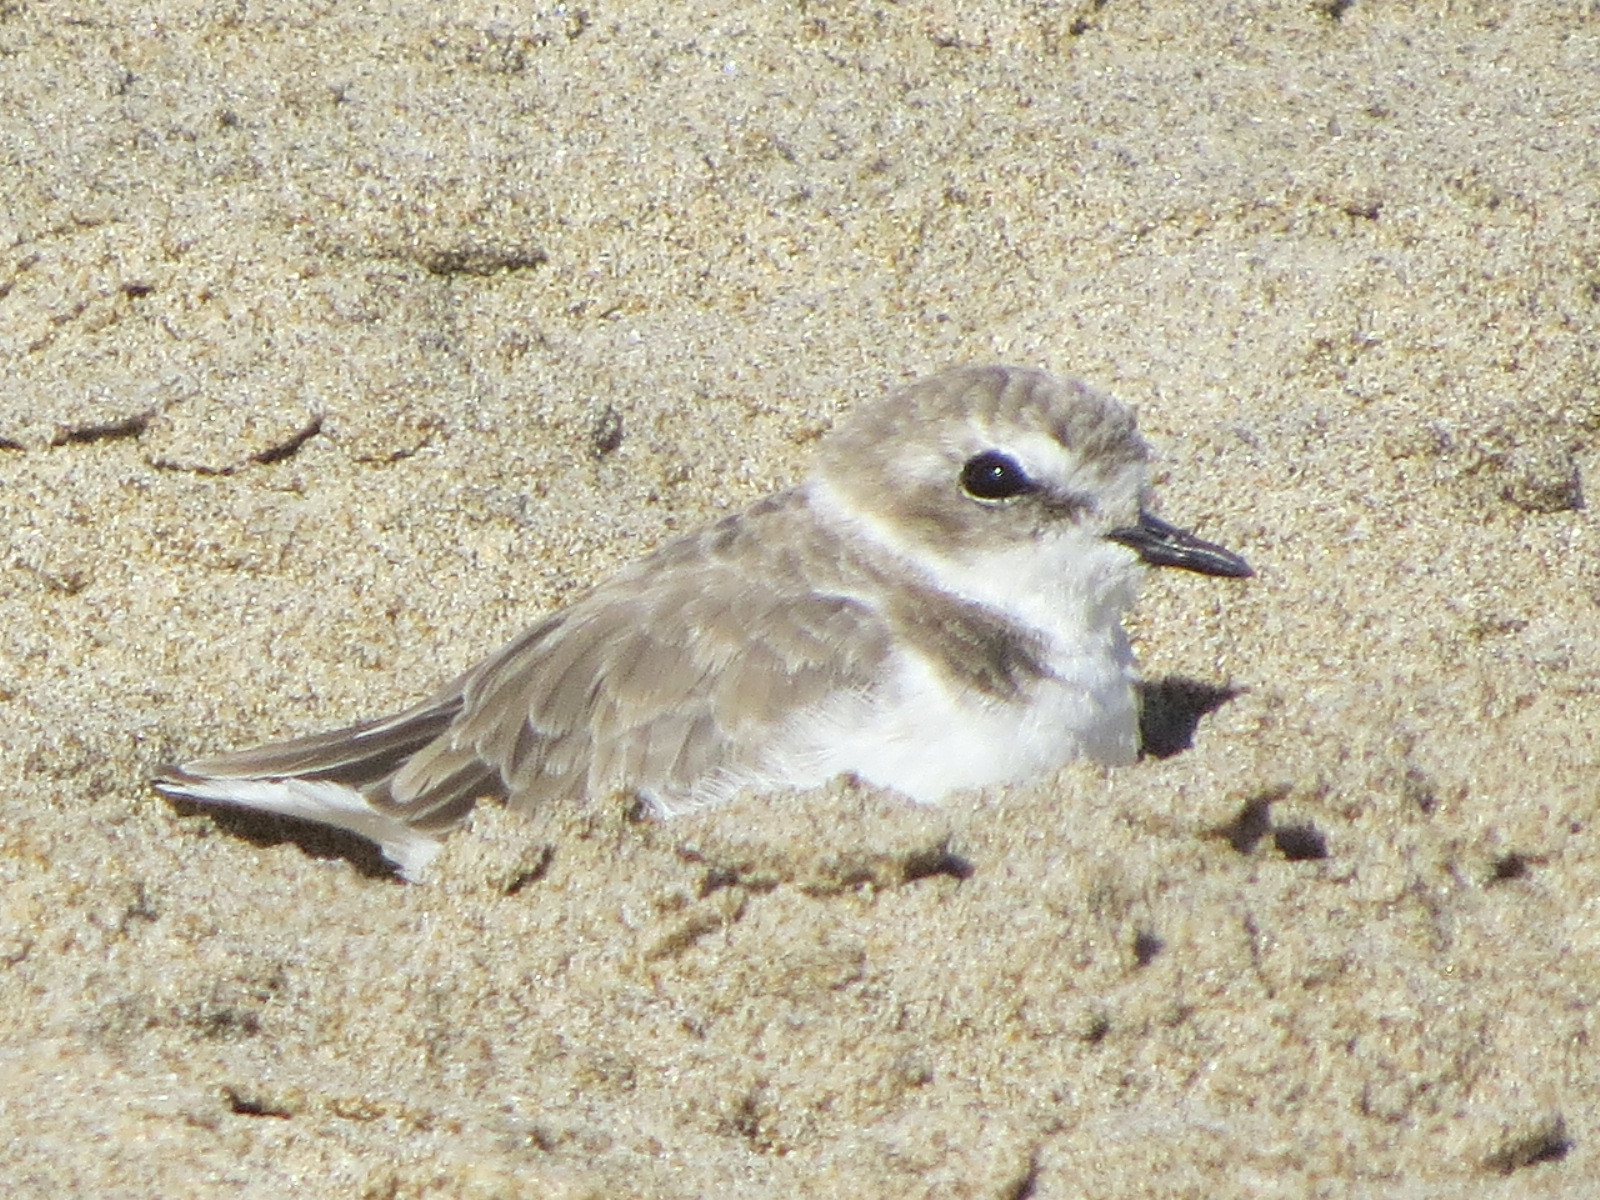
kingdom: Animalia
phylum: Chordata
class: Aves
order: Charadriiformes
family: Charadriidae
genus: Anarhynchus
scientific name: Anarhynchus
